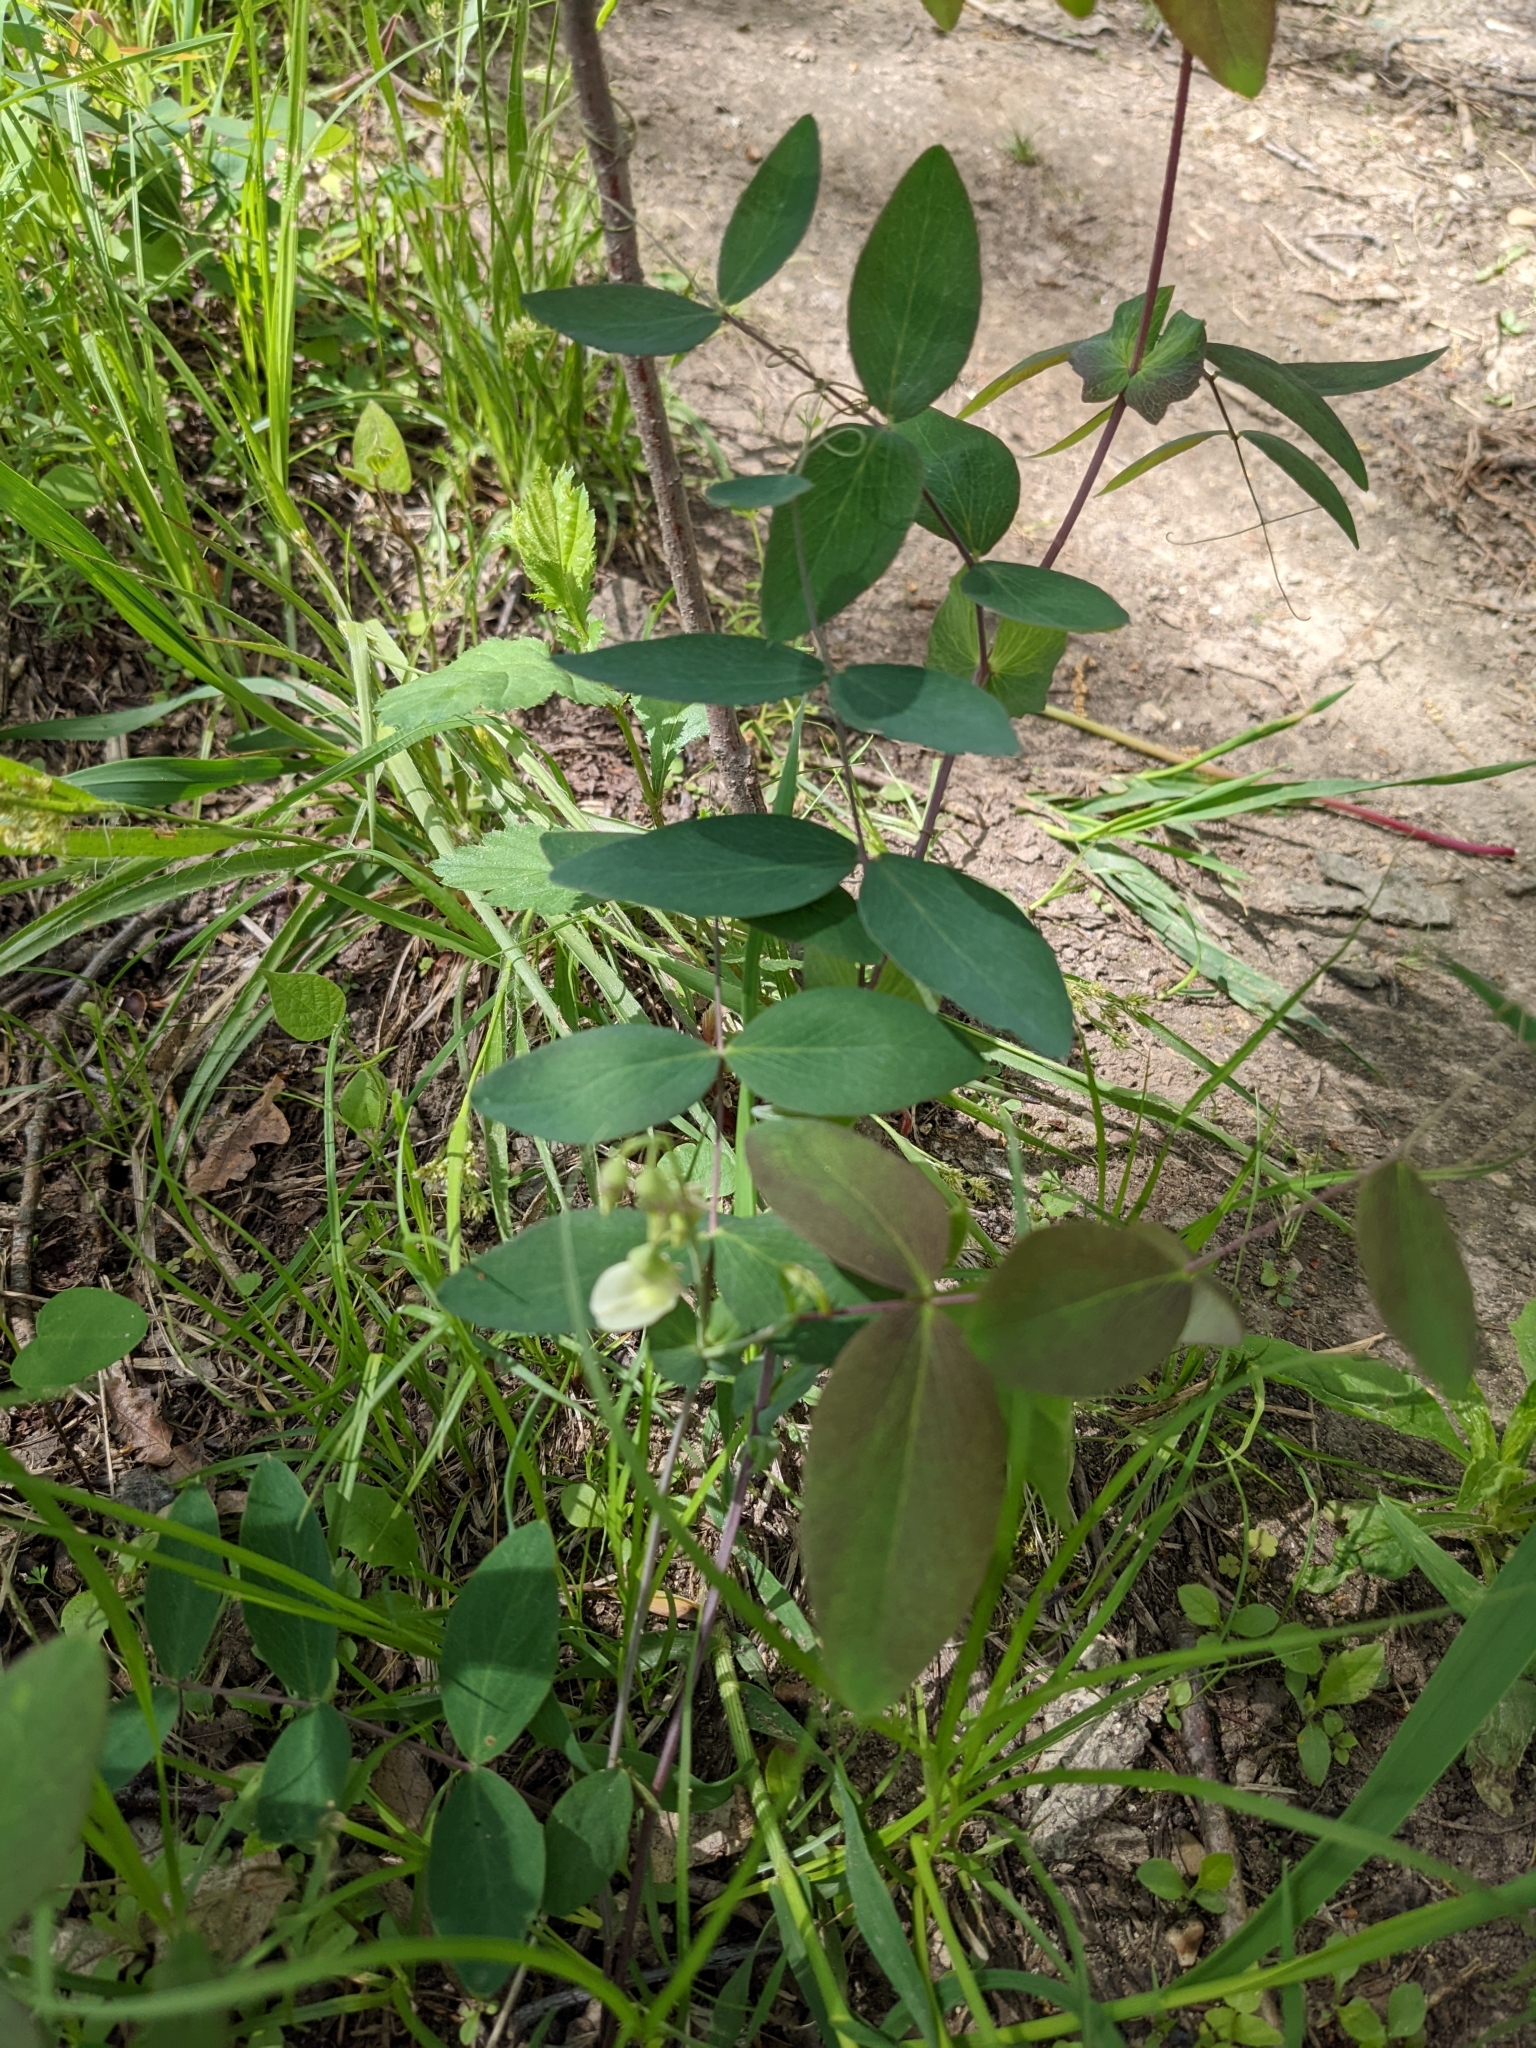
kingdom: Plantae
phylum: Tracheophyta
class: Magnoliopsida
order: Fabales
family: Fabaceae
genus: Lathyrus
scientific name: Lathyrus ochroleucus
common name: Pale vetchling
